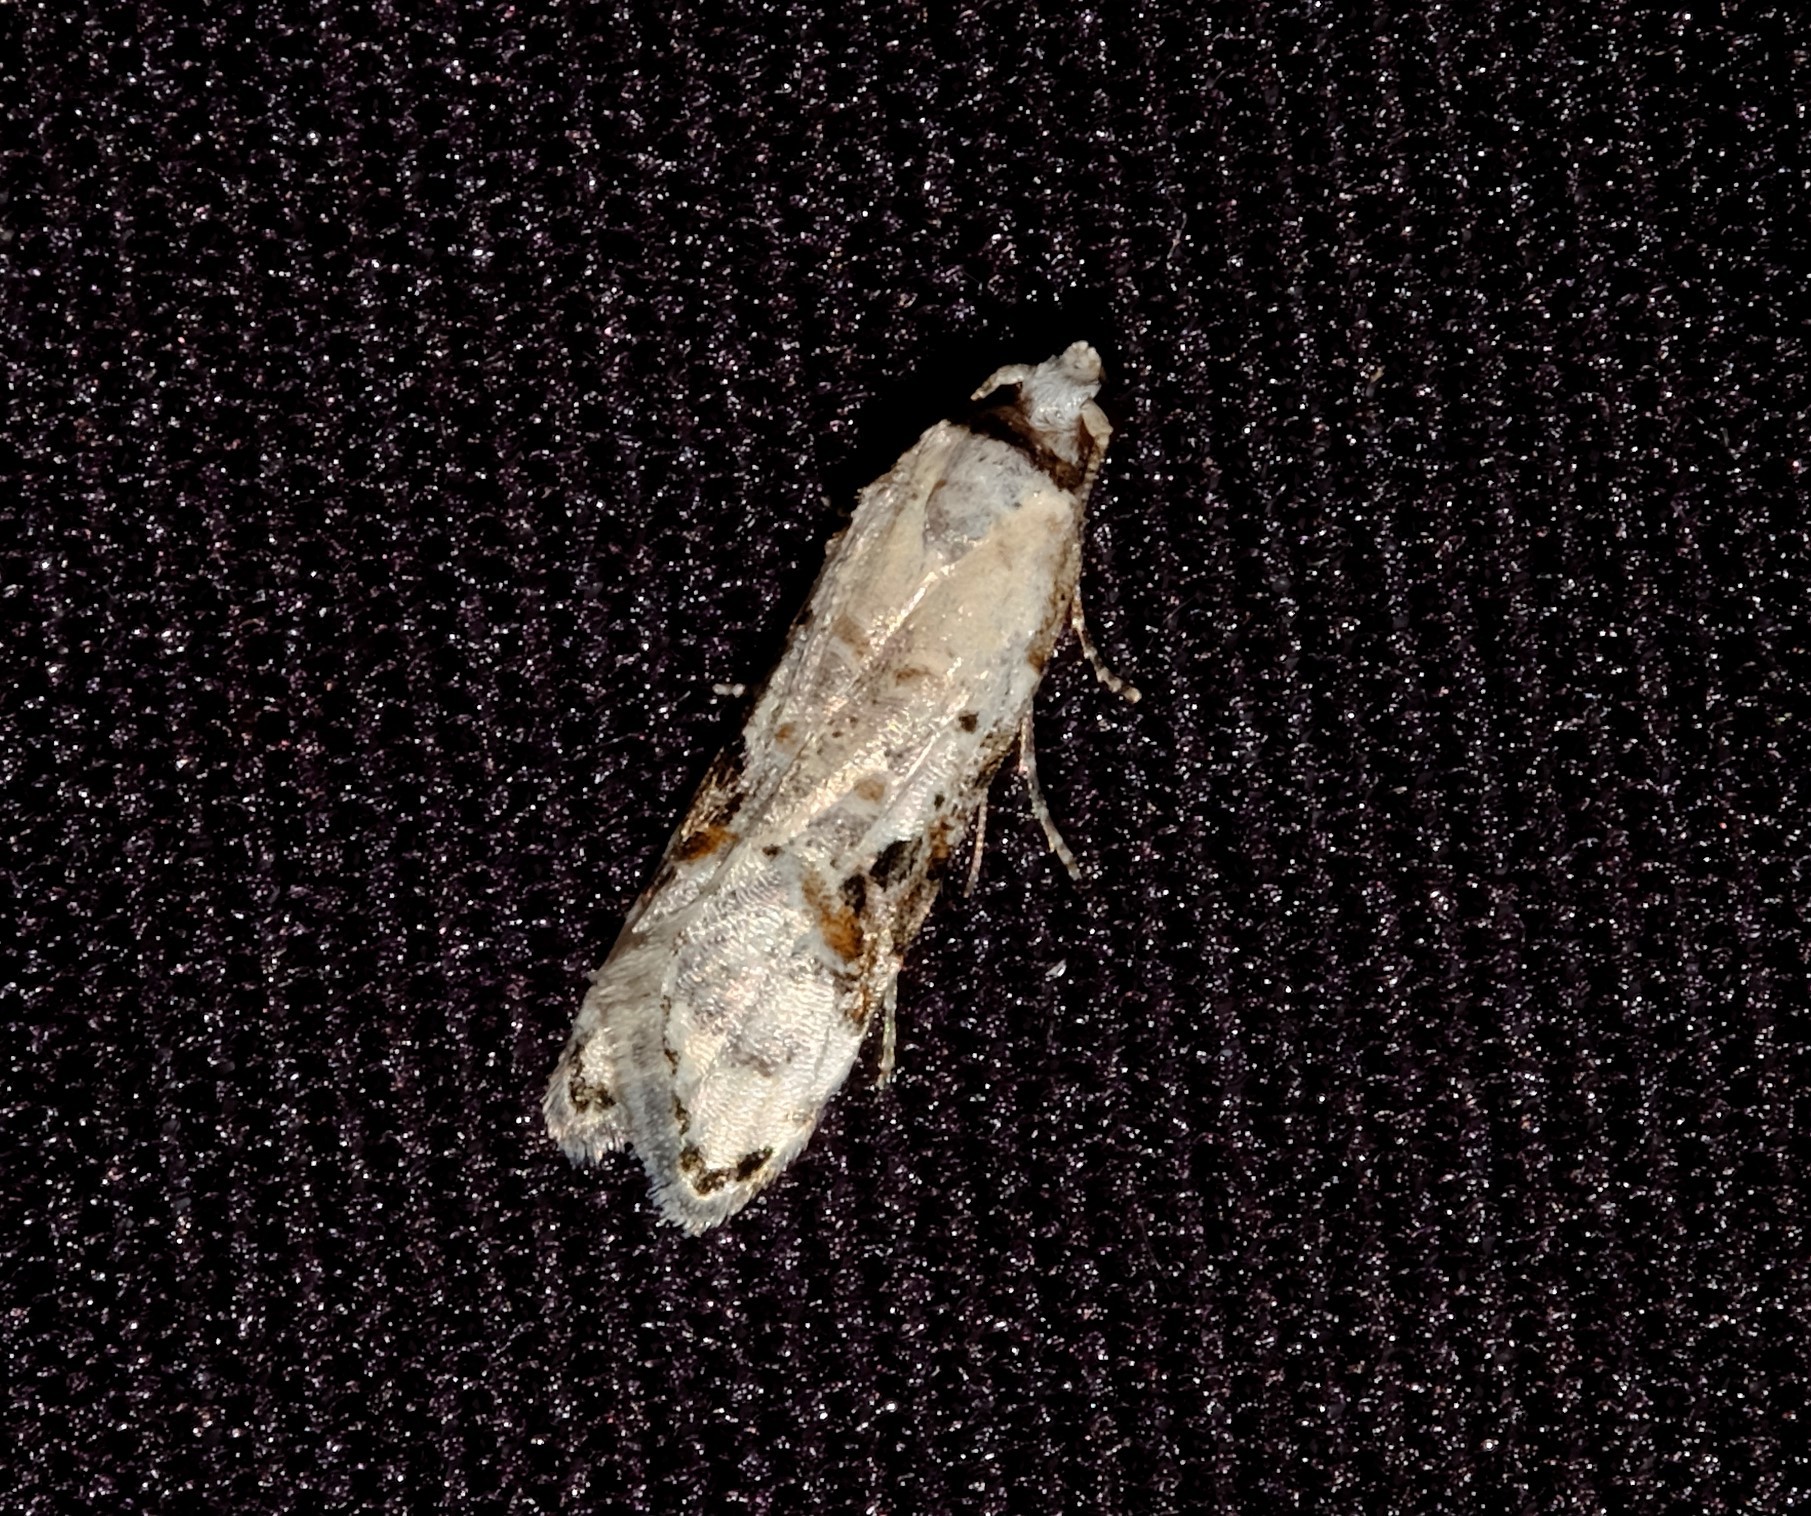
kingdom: Animalia
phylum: Arthropoda
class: Insecta
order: Lepidoptera
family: Carposinidae
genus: Sosineura
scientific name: Sosineura mimica
